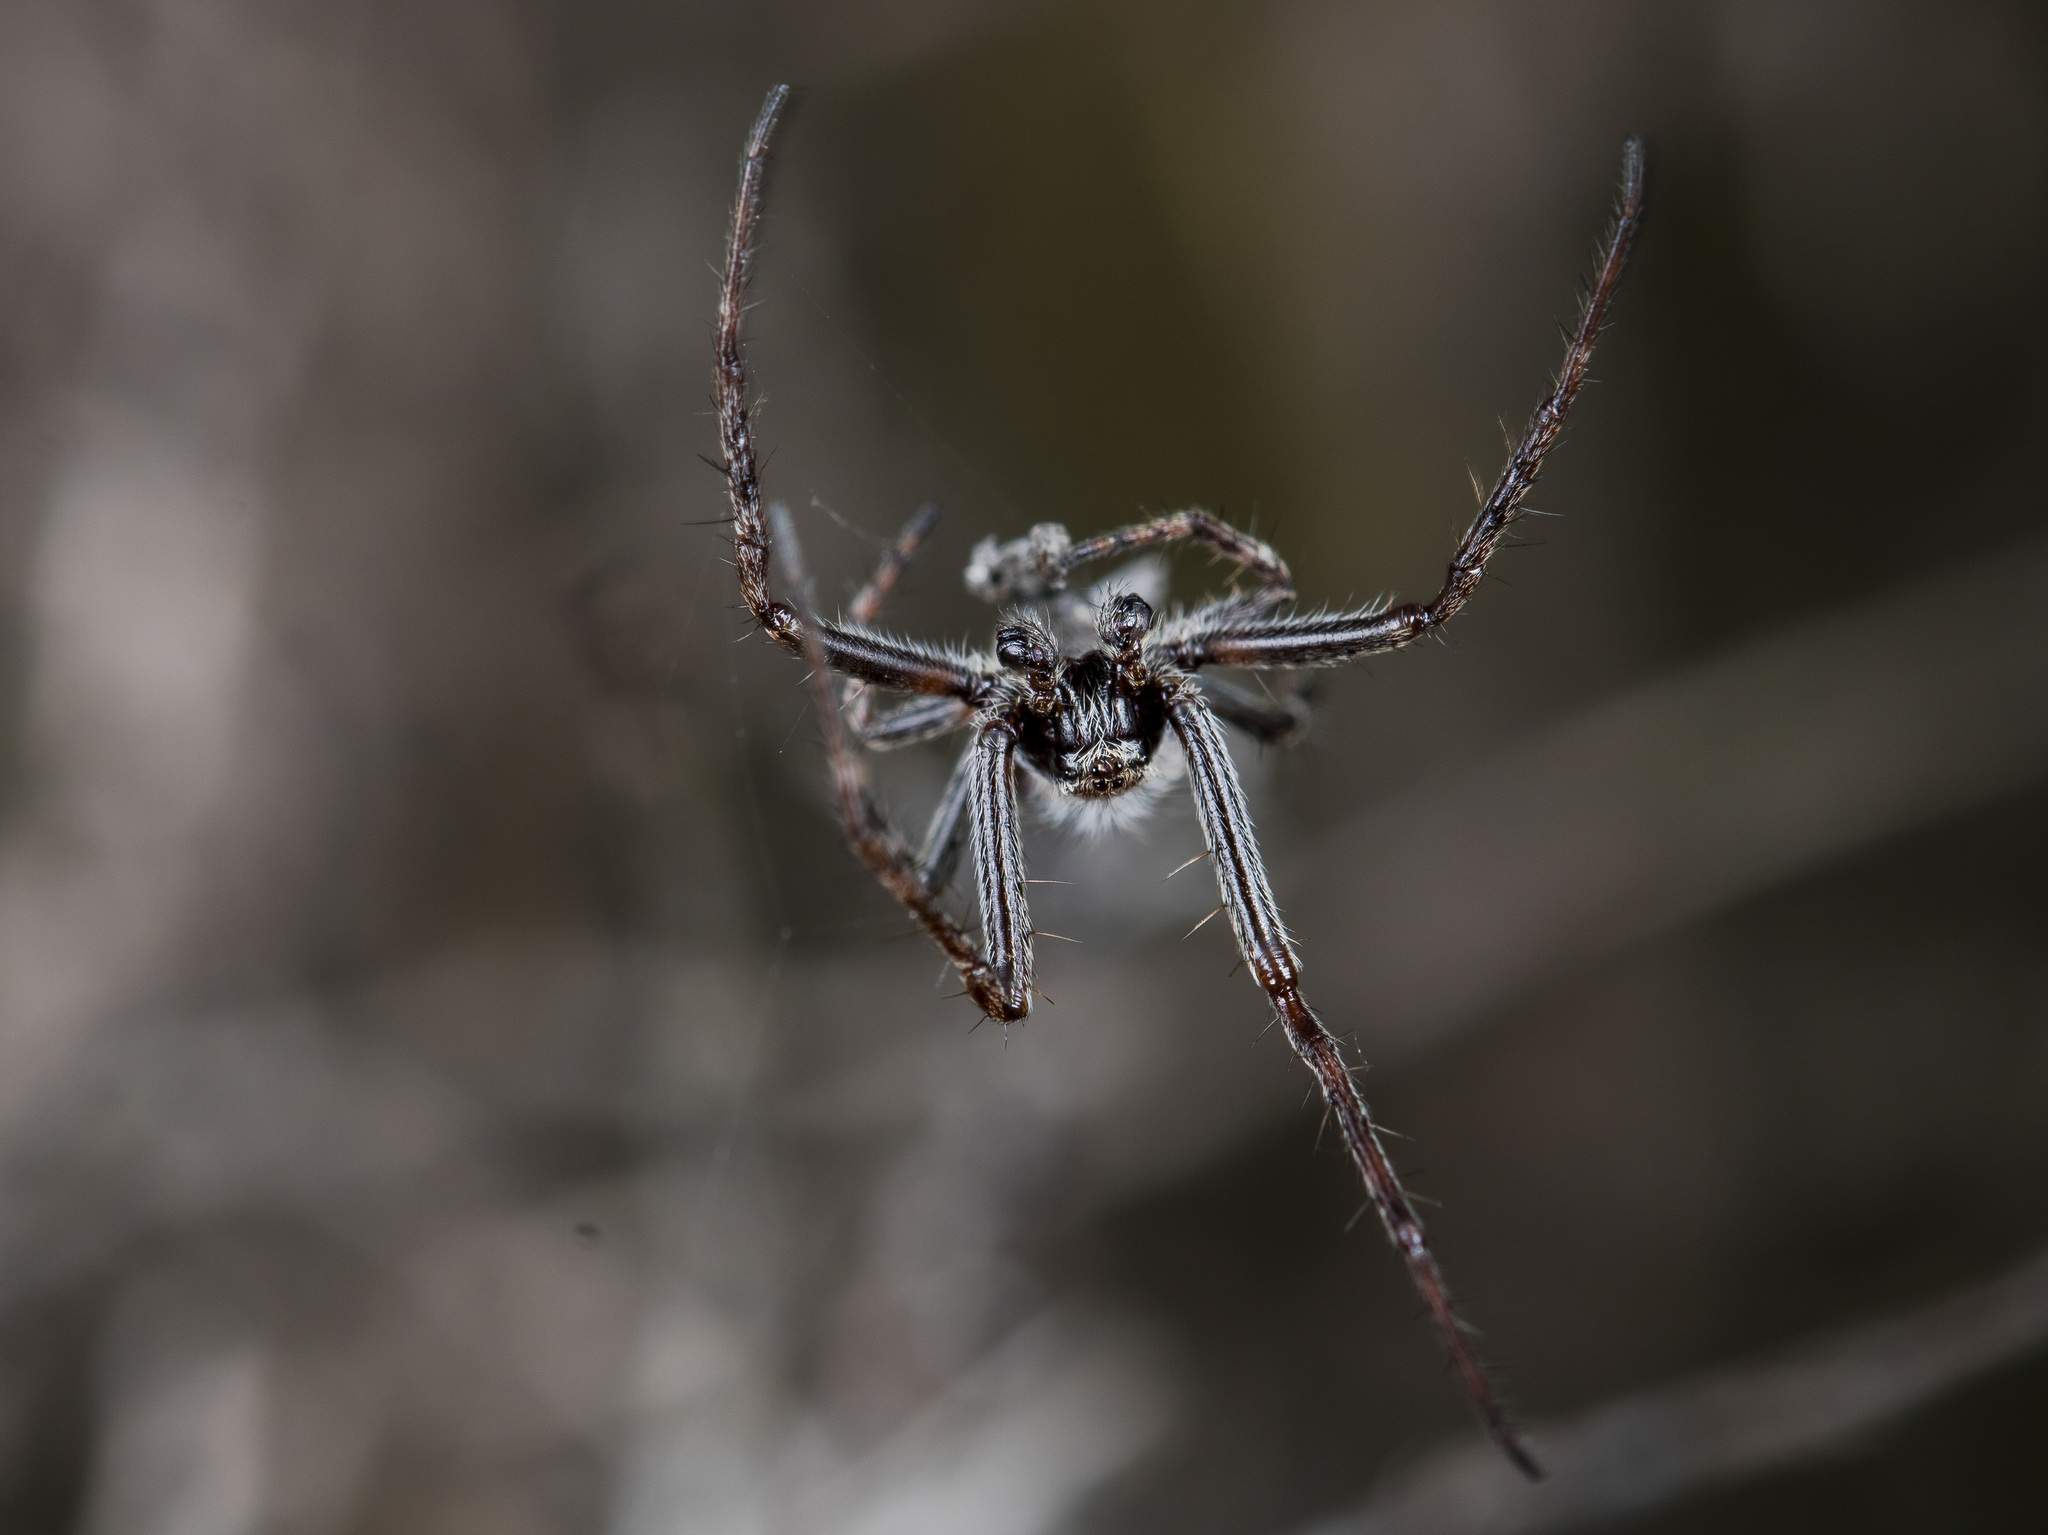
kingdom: Animalia
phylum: Arthropoda
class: Arachnida
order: Araneae
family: Araneidae
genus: Agalenatea
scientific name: Agalenatea redii
